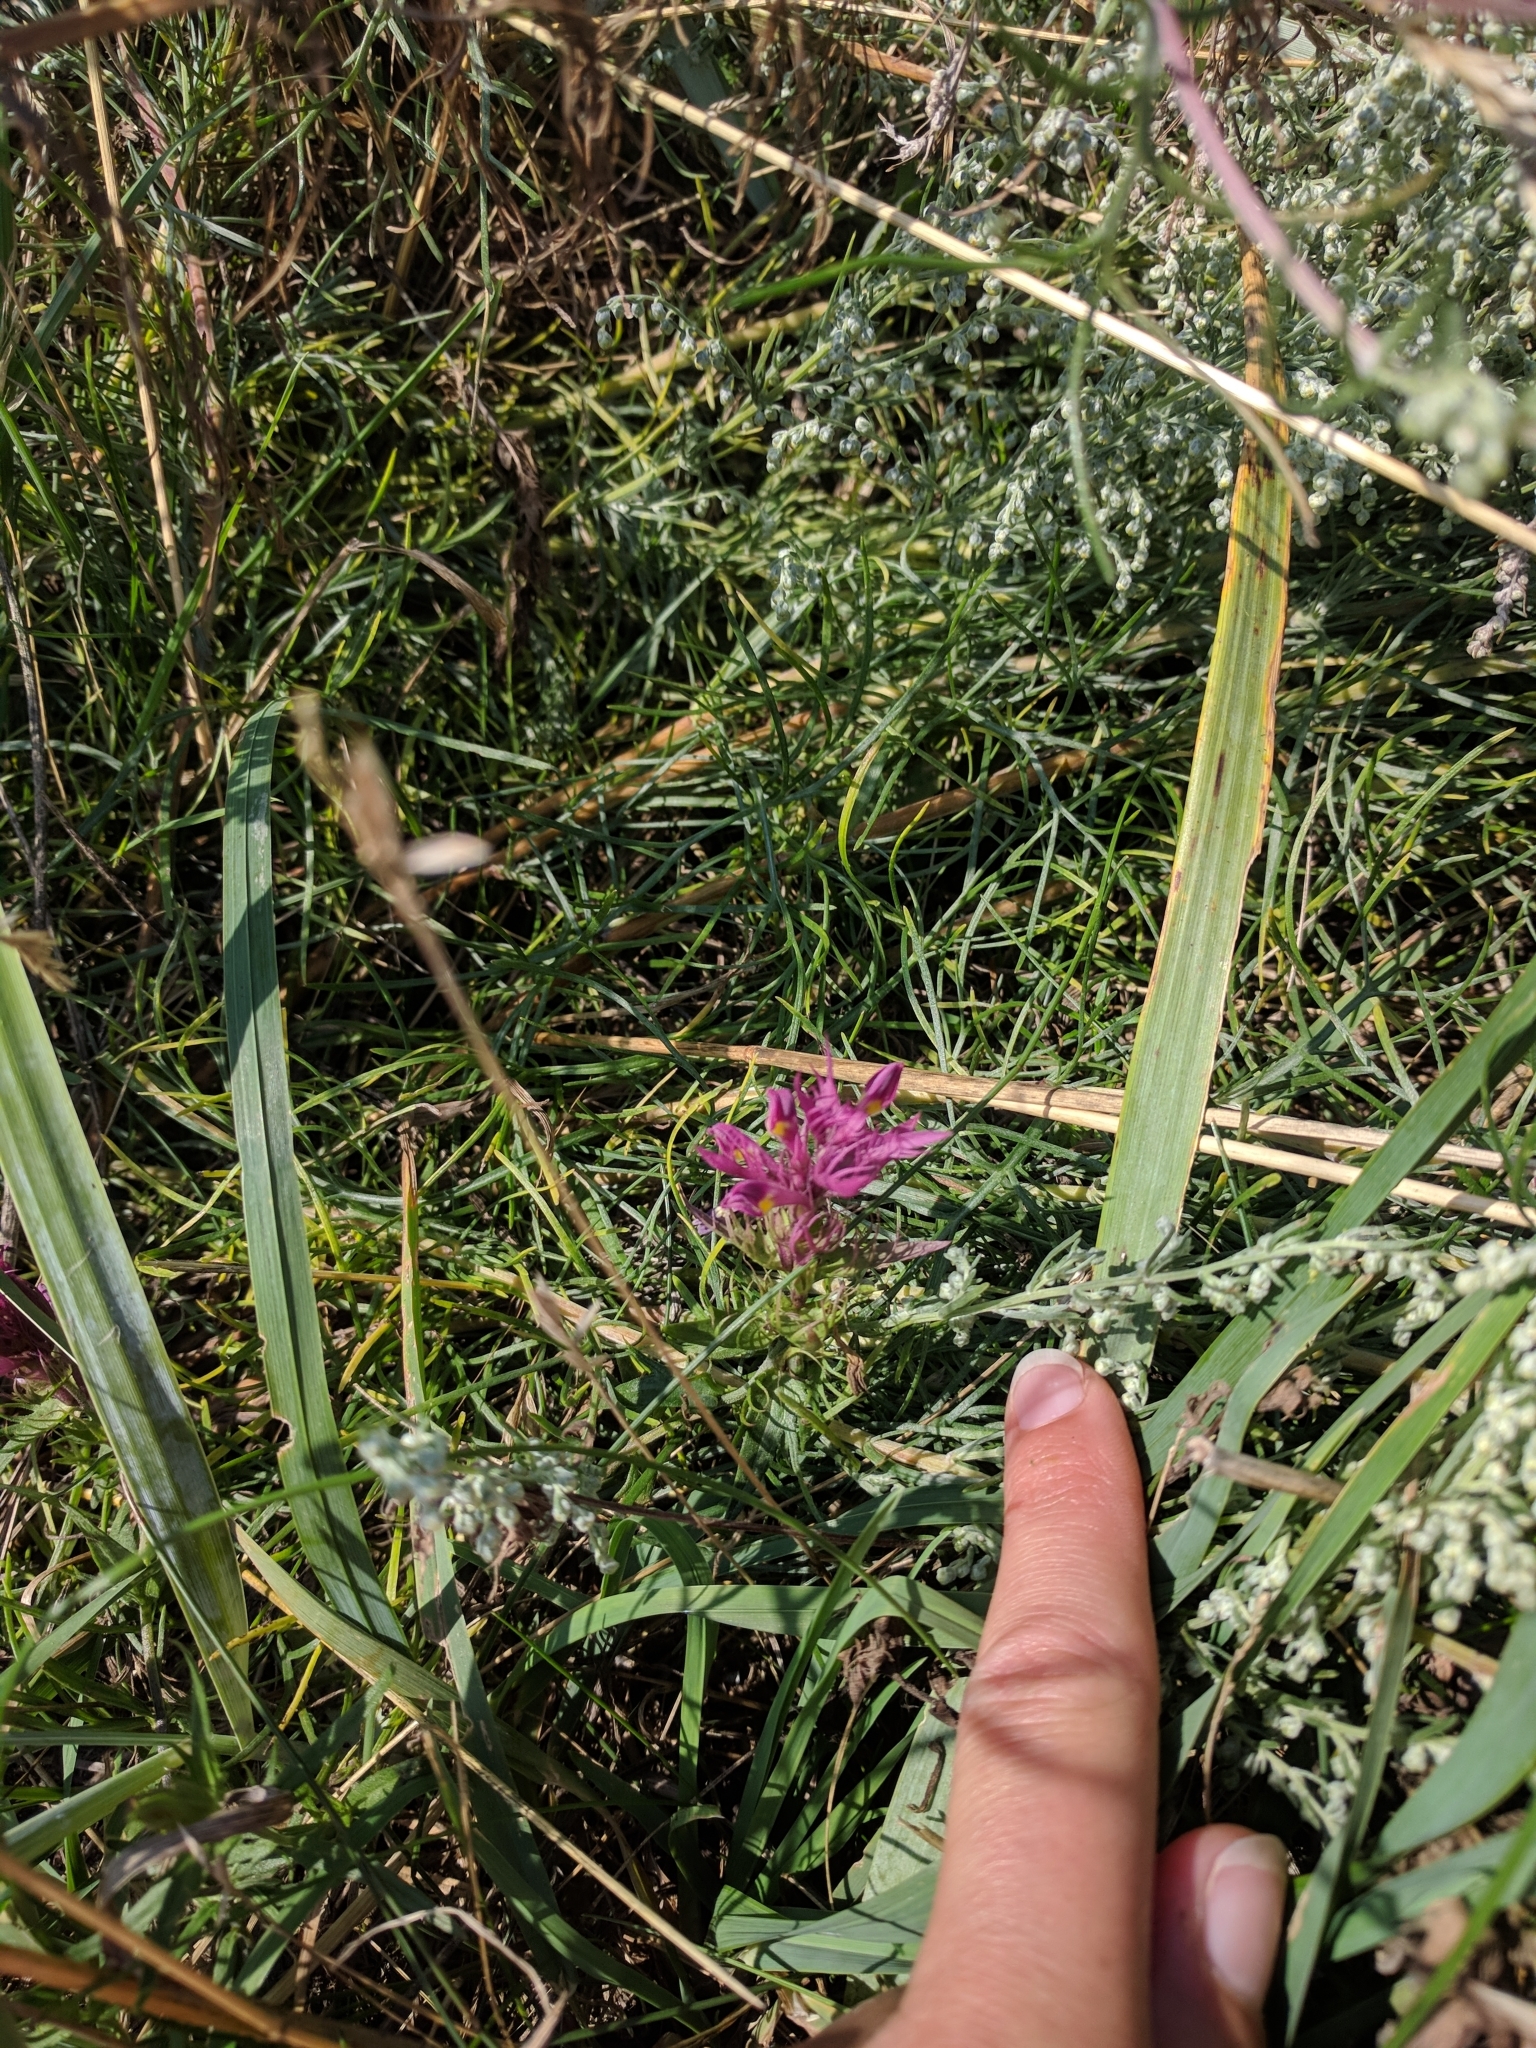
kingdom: Plantae
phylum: Tracheophyta
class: Magnoliopsida
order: Lamiales
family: Orobanchaceae
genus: Melampyrum
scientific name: Melampyrum arvense
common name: Field cow-wheat
